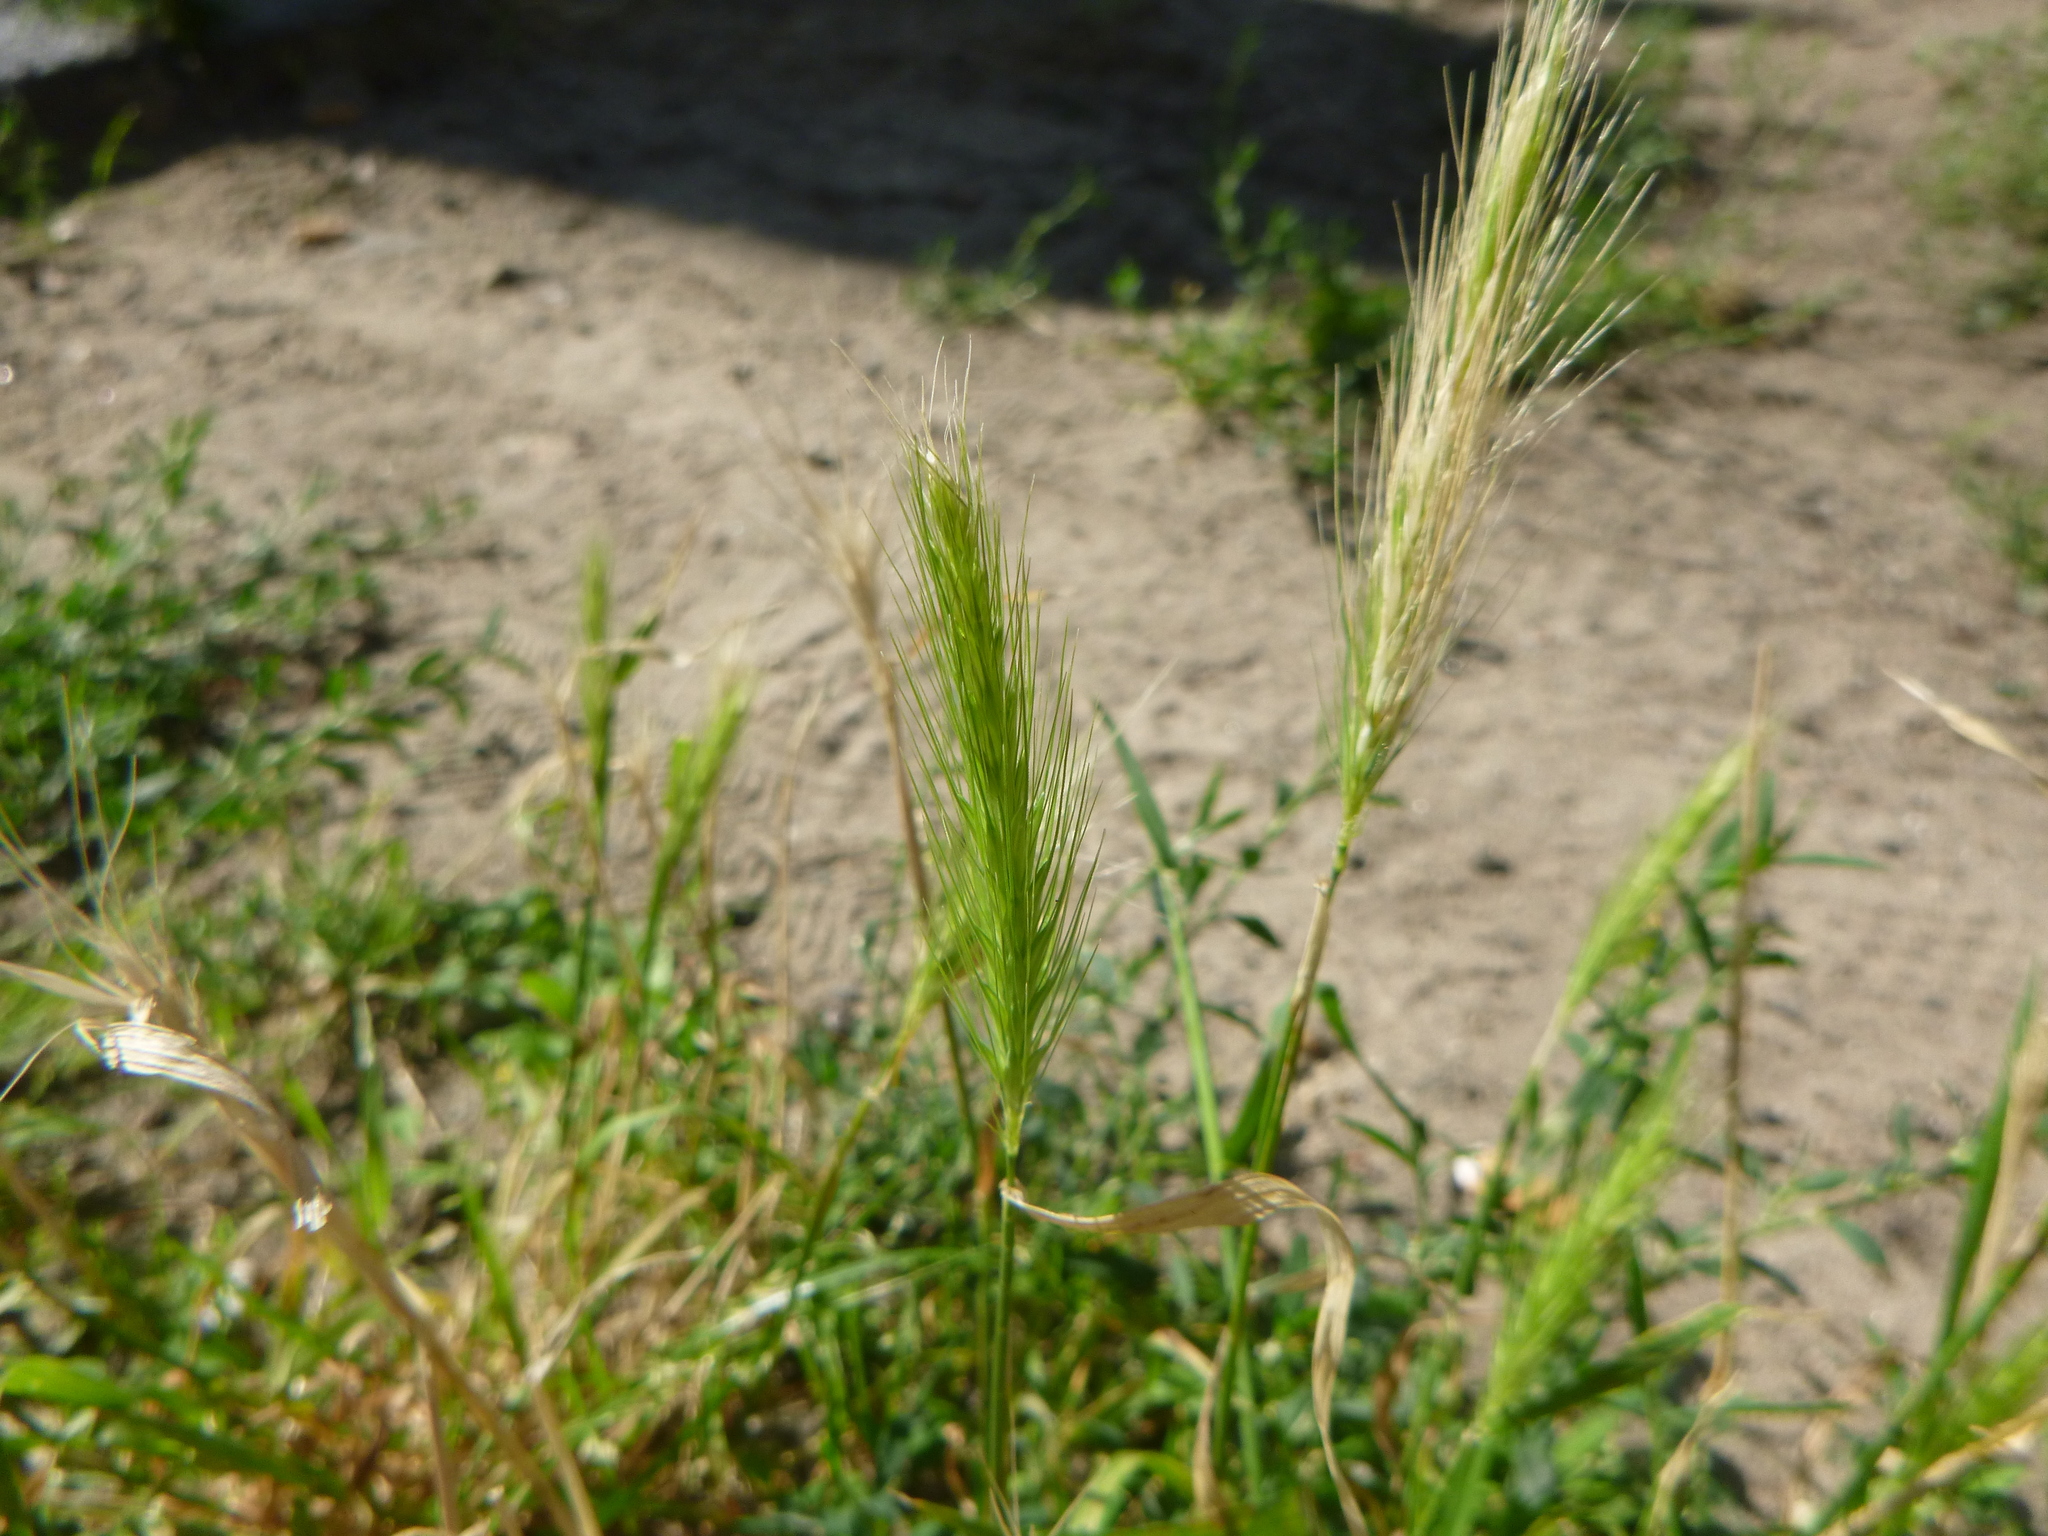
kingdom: Plantae
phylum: Tracheophyta
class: Liliopsida
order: Poales
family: Poaceae
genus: Hordeum
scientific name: Hordeum murinum
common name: Wall barley
